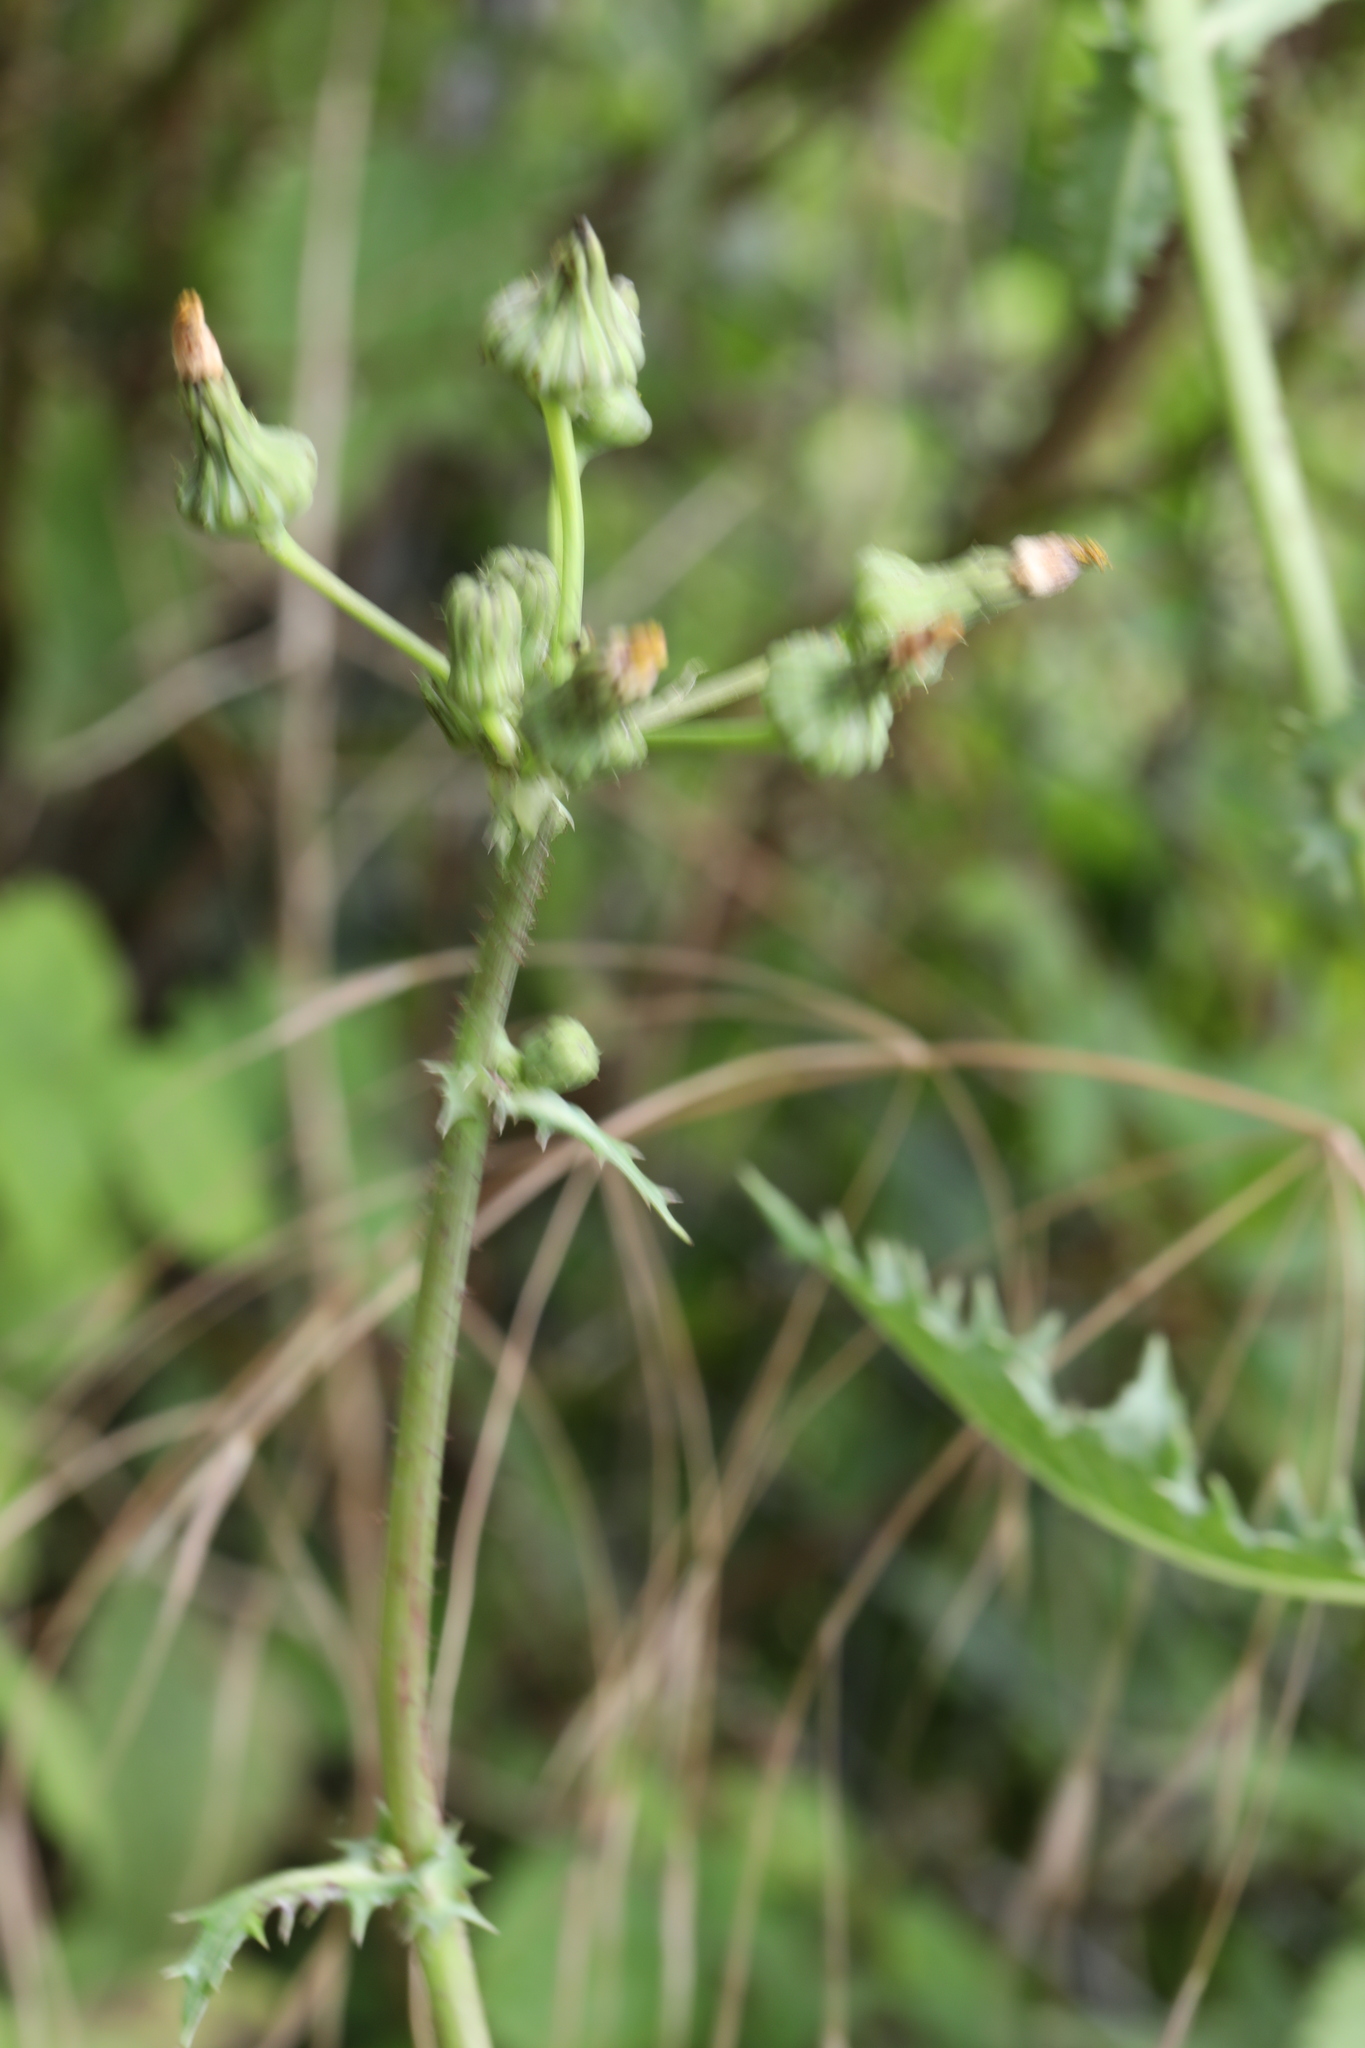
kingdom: Plantae
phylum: Tracheophyta
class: Magnoliopsida
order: Asterales
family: Asteraceae
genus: Sonchus
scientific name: Sonchus asper
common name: Prickly sow-thistle
